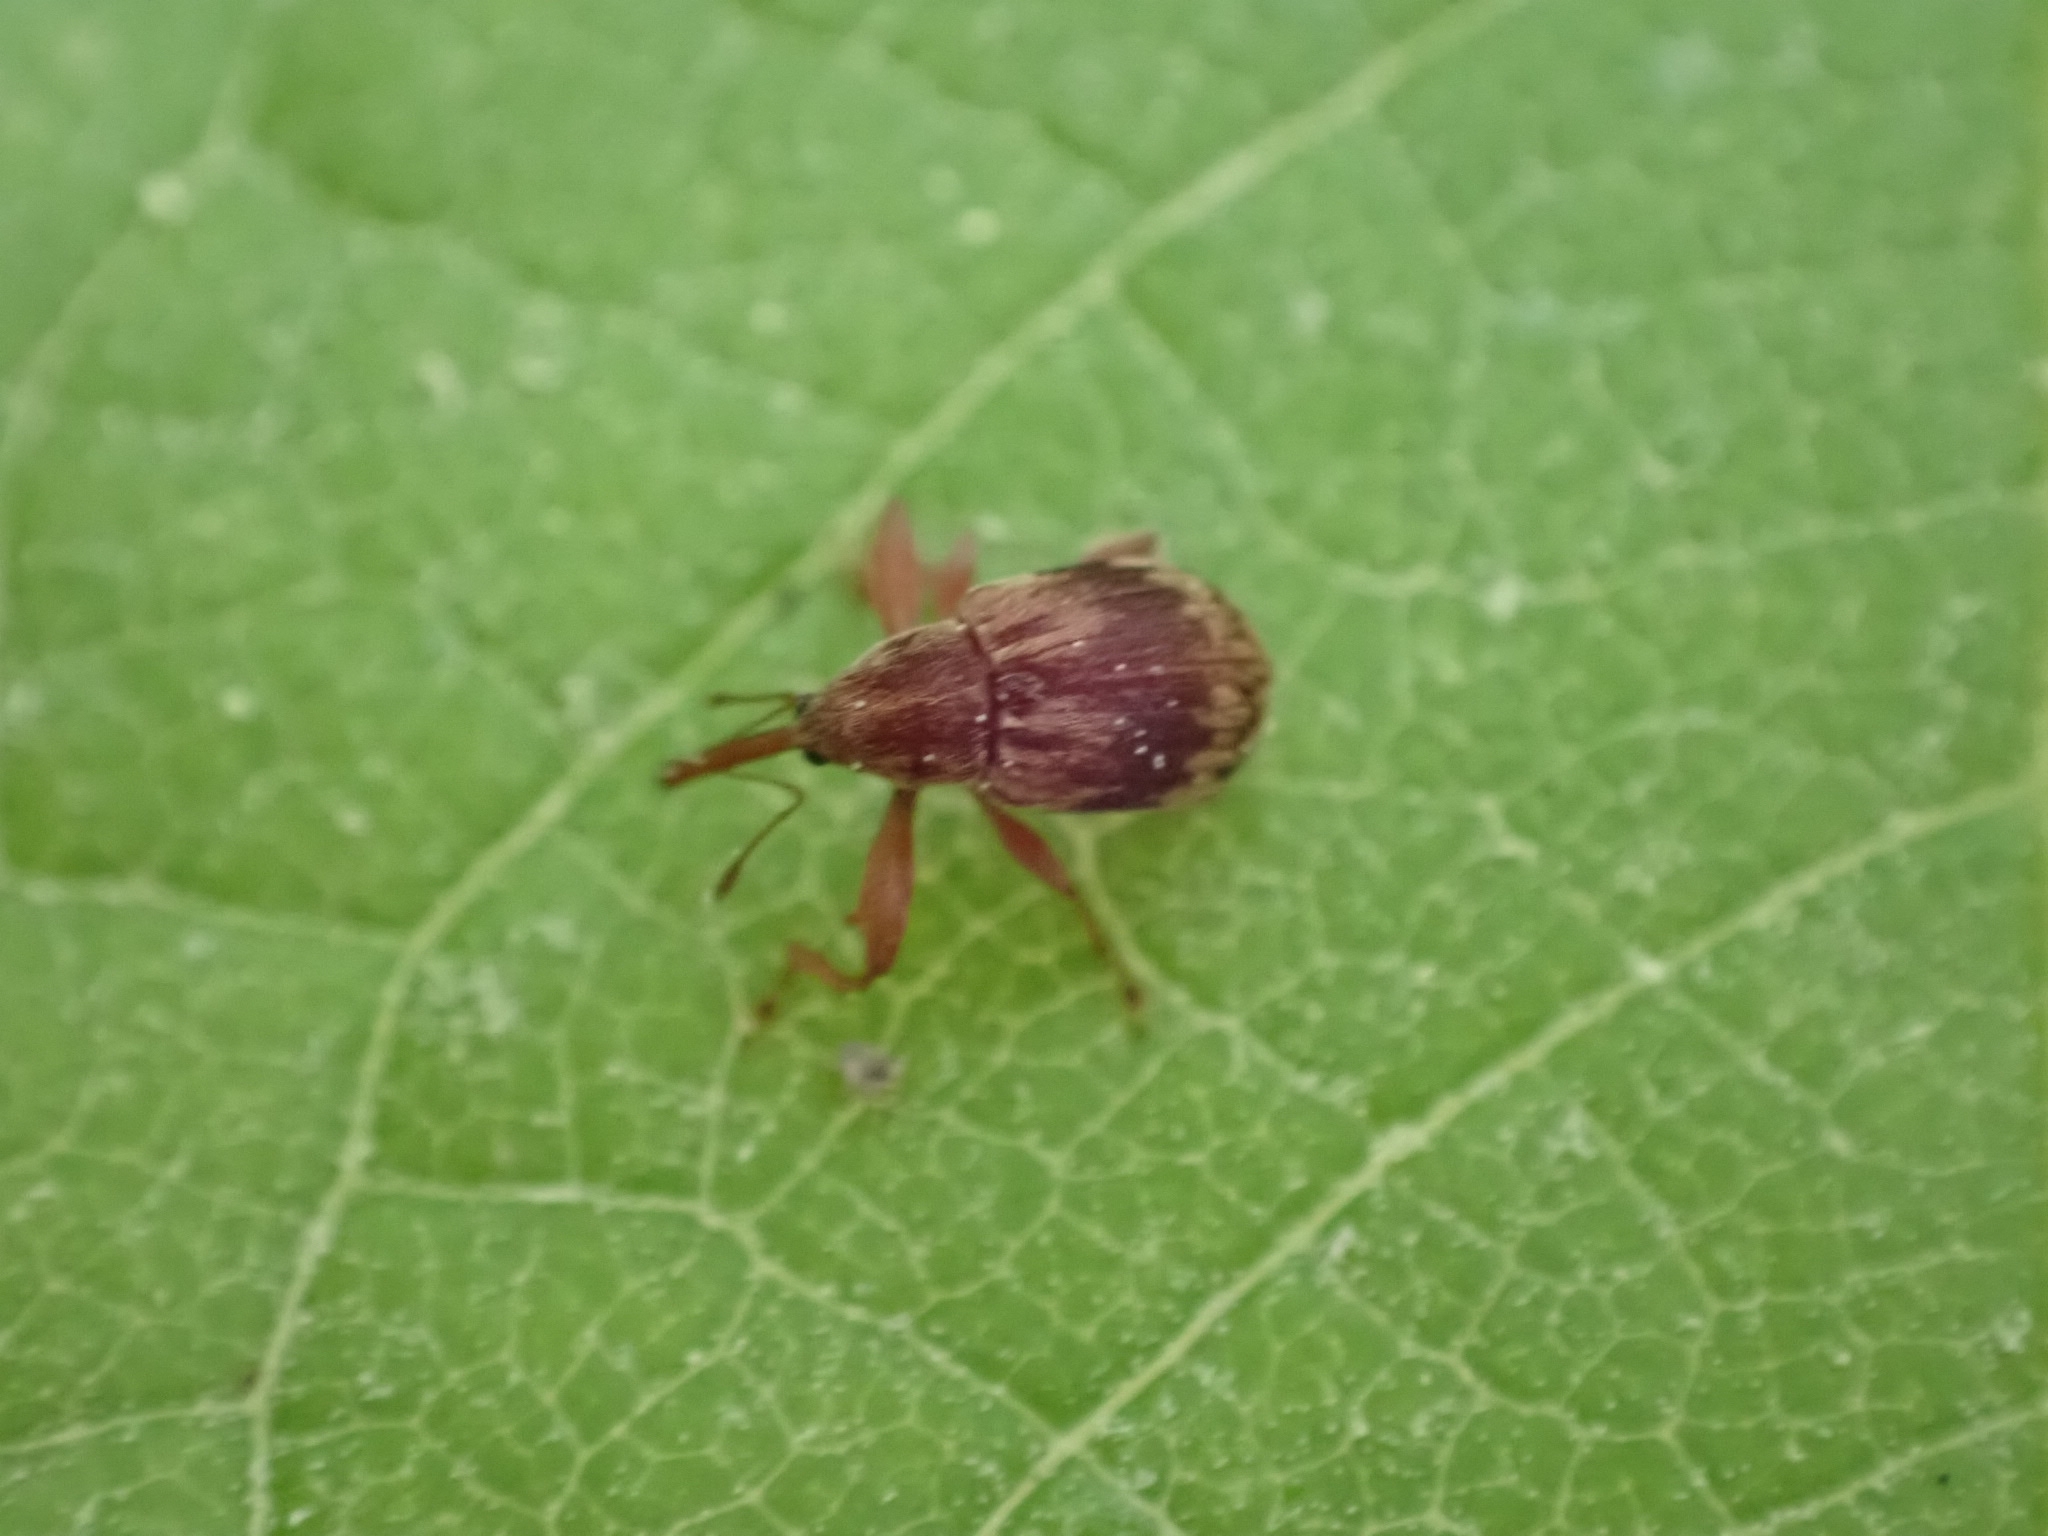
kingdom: Animalia
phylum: Arthropoda
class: Insecta
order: Coleoptera
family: Curculionidae
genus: Anthonomus
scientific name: Anthonomus rectirostris
